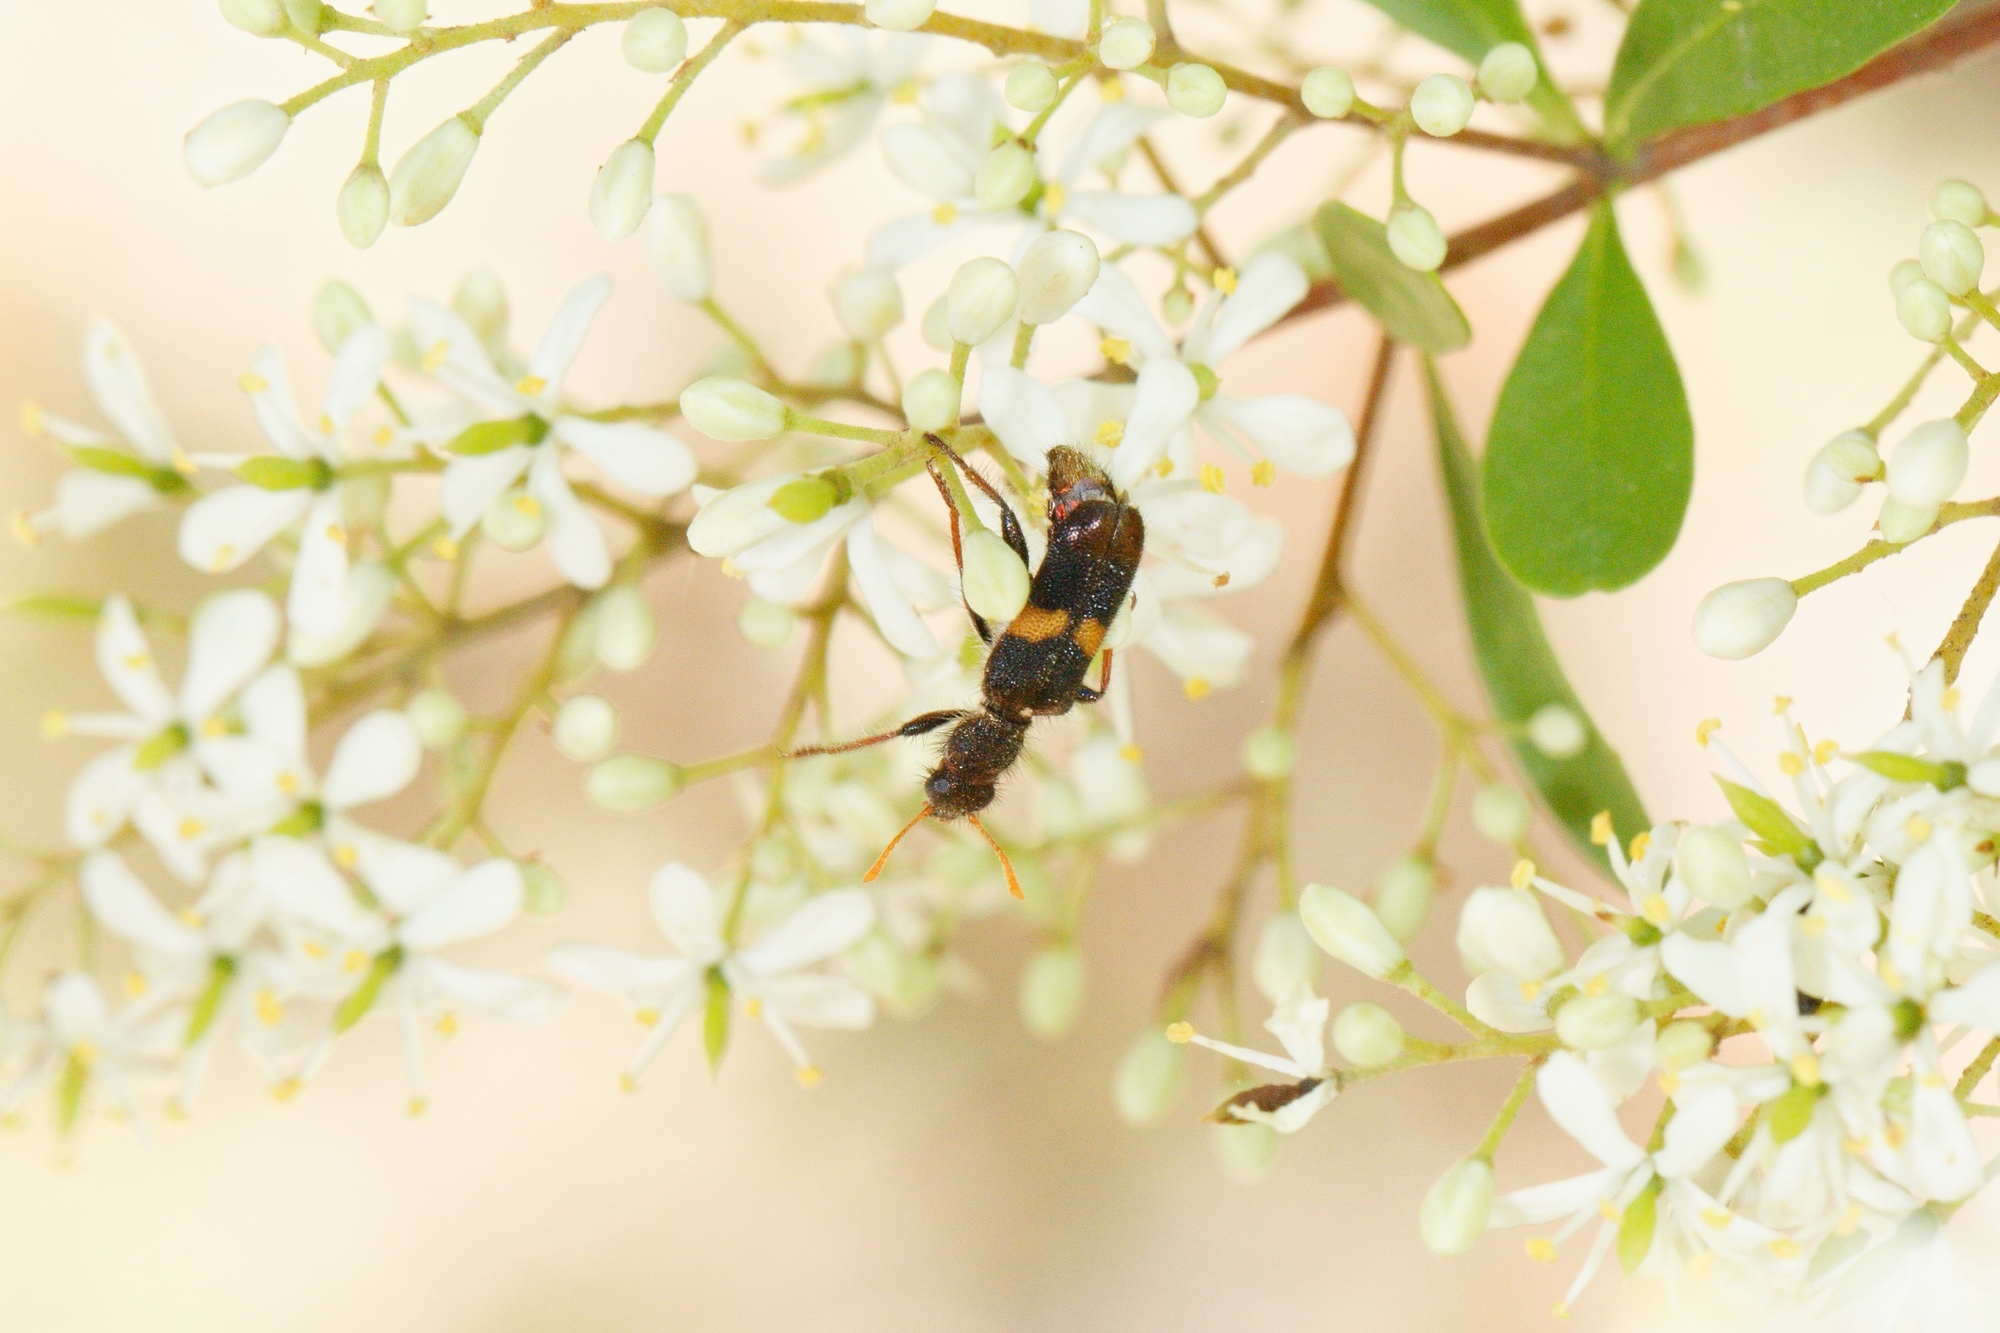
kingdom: Animalia
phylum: Arthropoda
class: Insecta
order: Coleoptera
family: Cleridae
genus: Eleale
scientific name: Eleale
